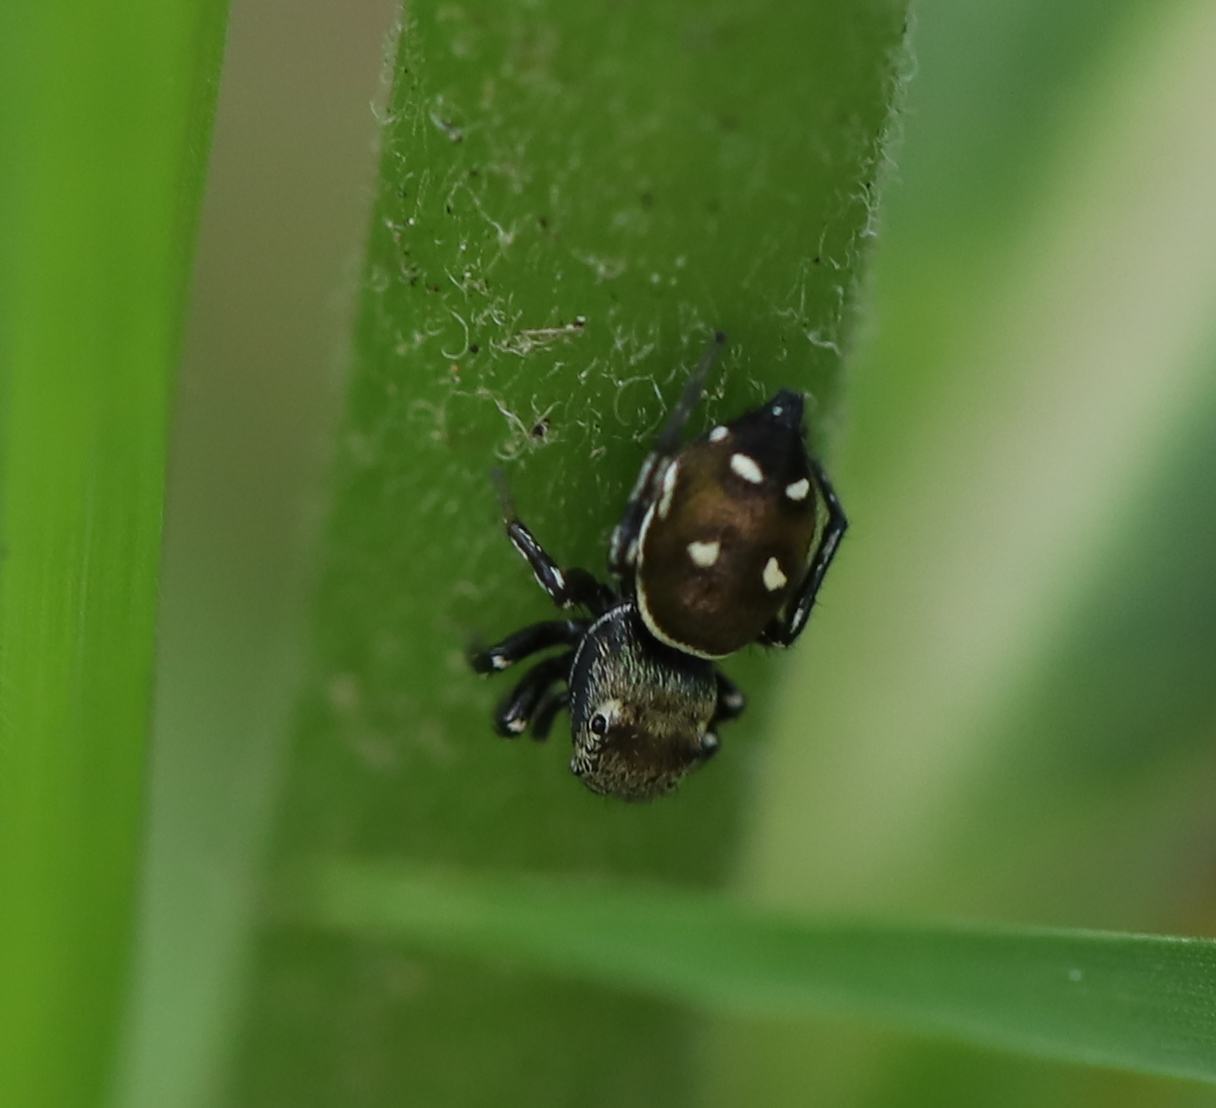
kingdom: Animalia
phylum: Arthropoda
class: Arachnida
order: Araneae
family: Salticidae
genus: Heliophanus
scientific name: Heliophanus kochii
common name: Sun jumping spider
